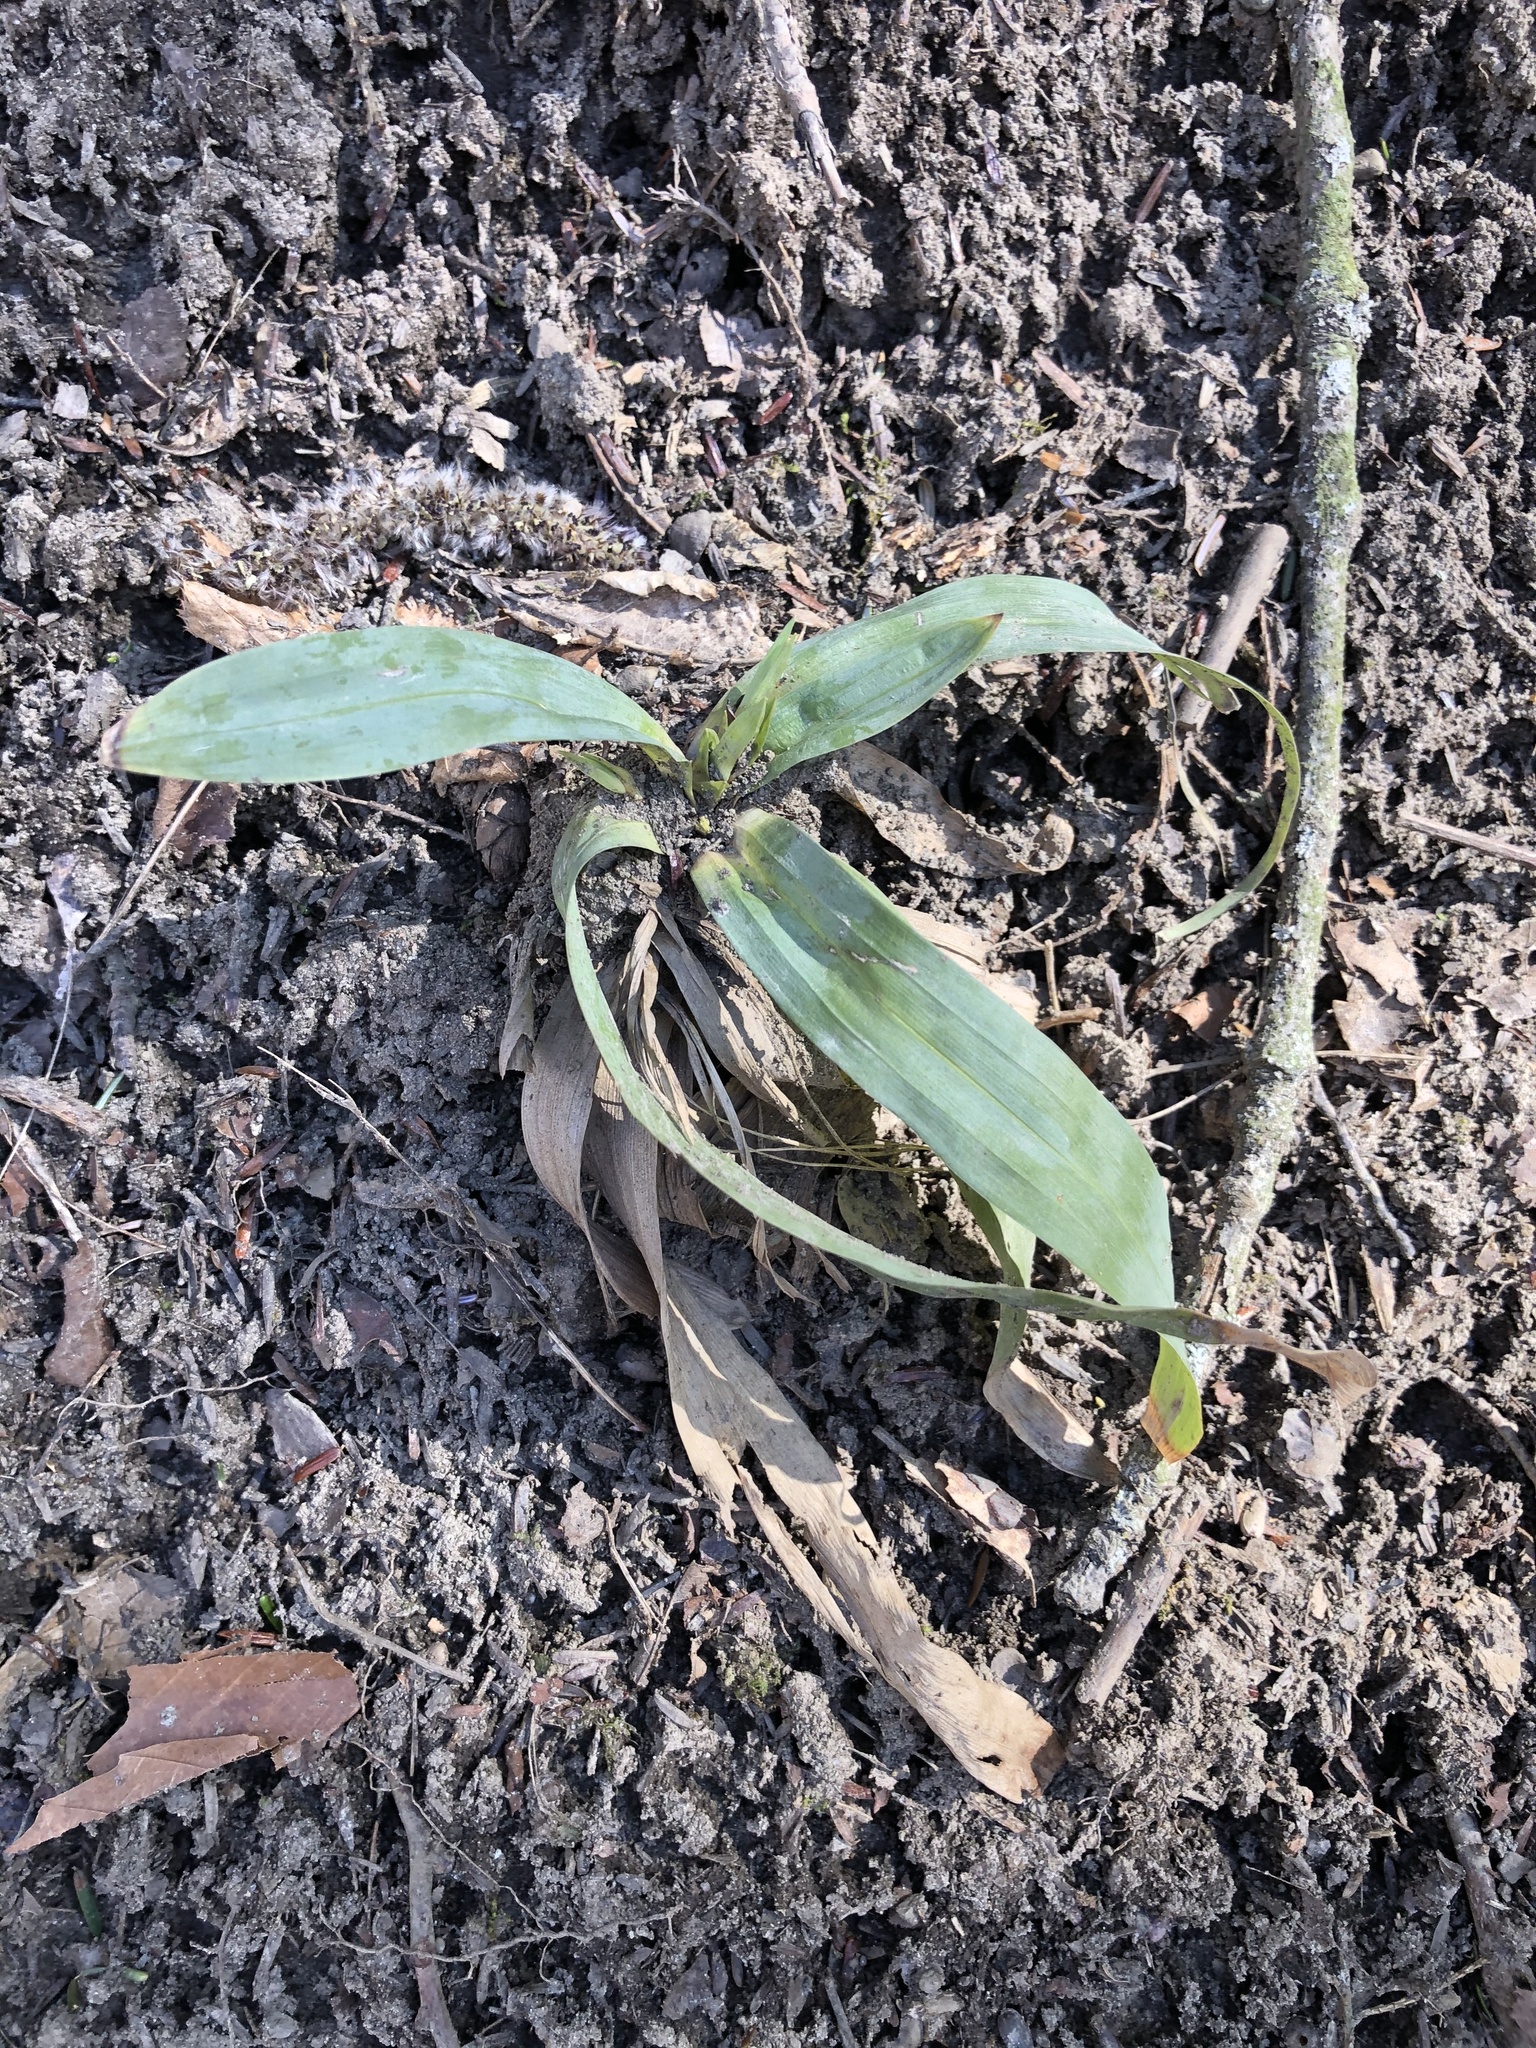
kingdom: Plantae
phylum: Tracheophyta
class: Liliopsida
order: Poales
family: Cyperaceae
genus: Carex
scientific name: Carex platyphylla
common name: Broad-leaved sedge
